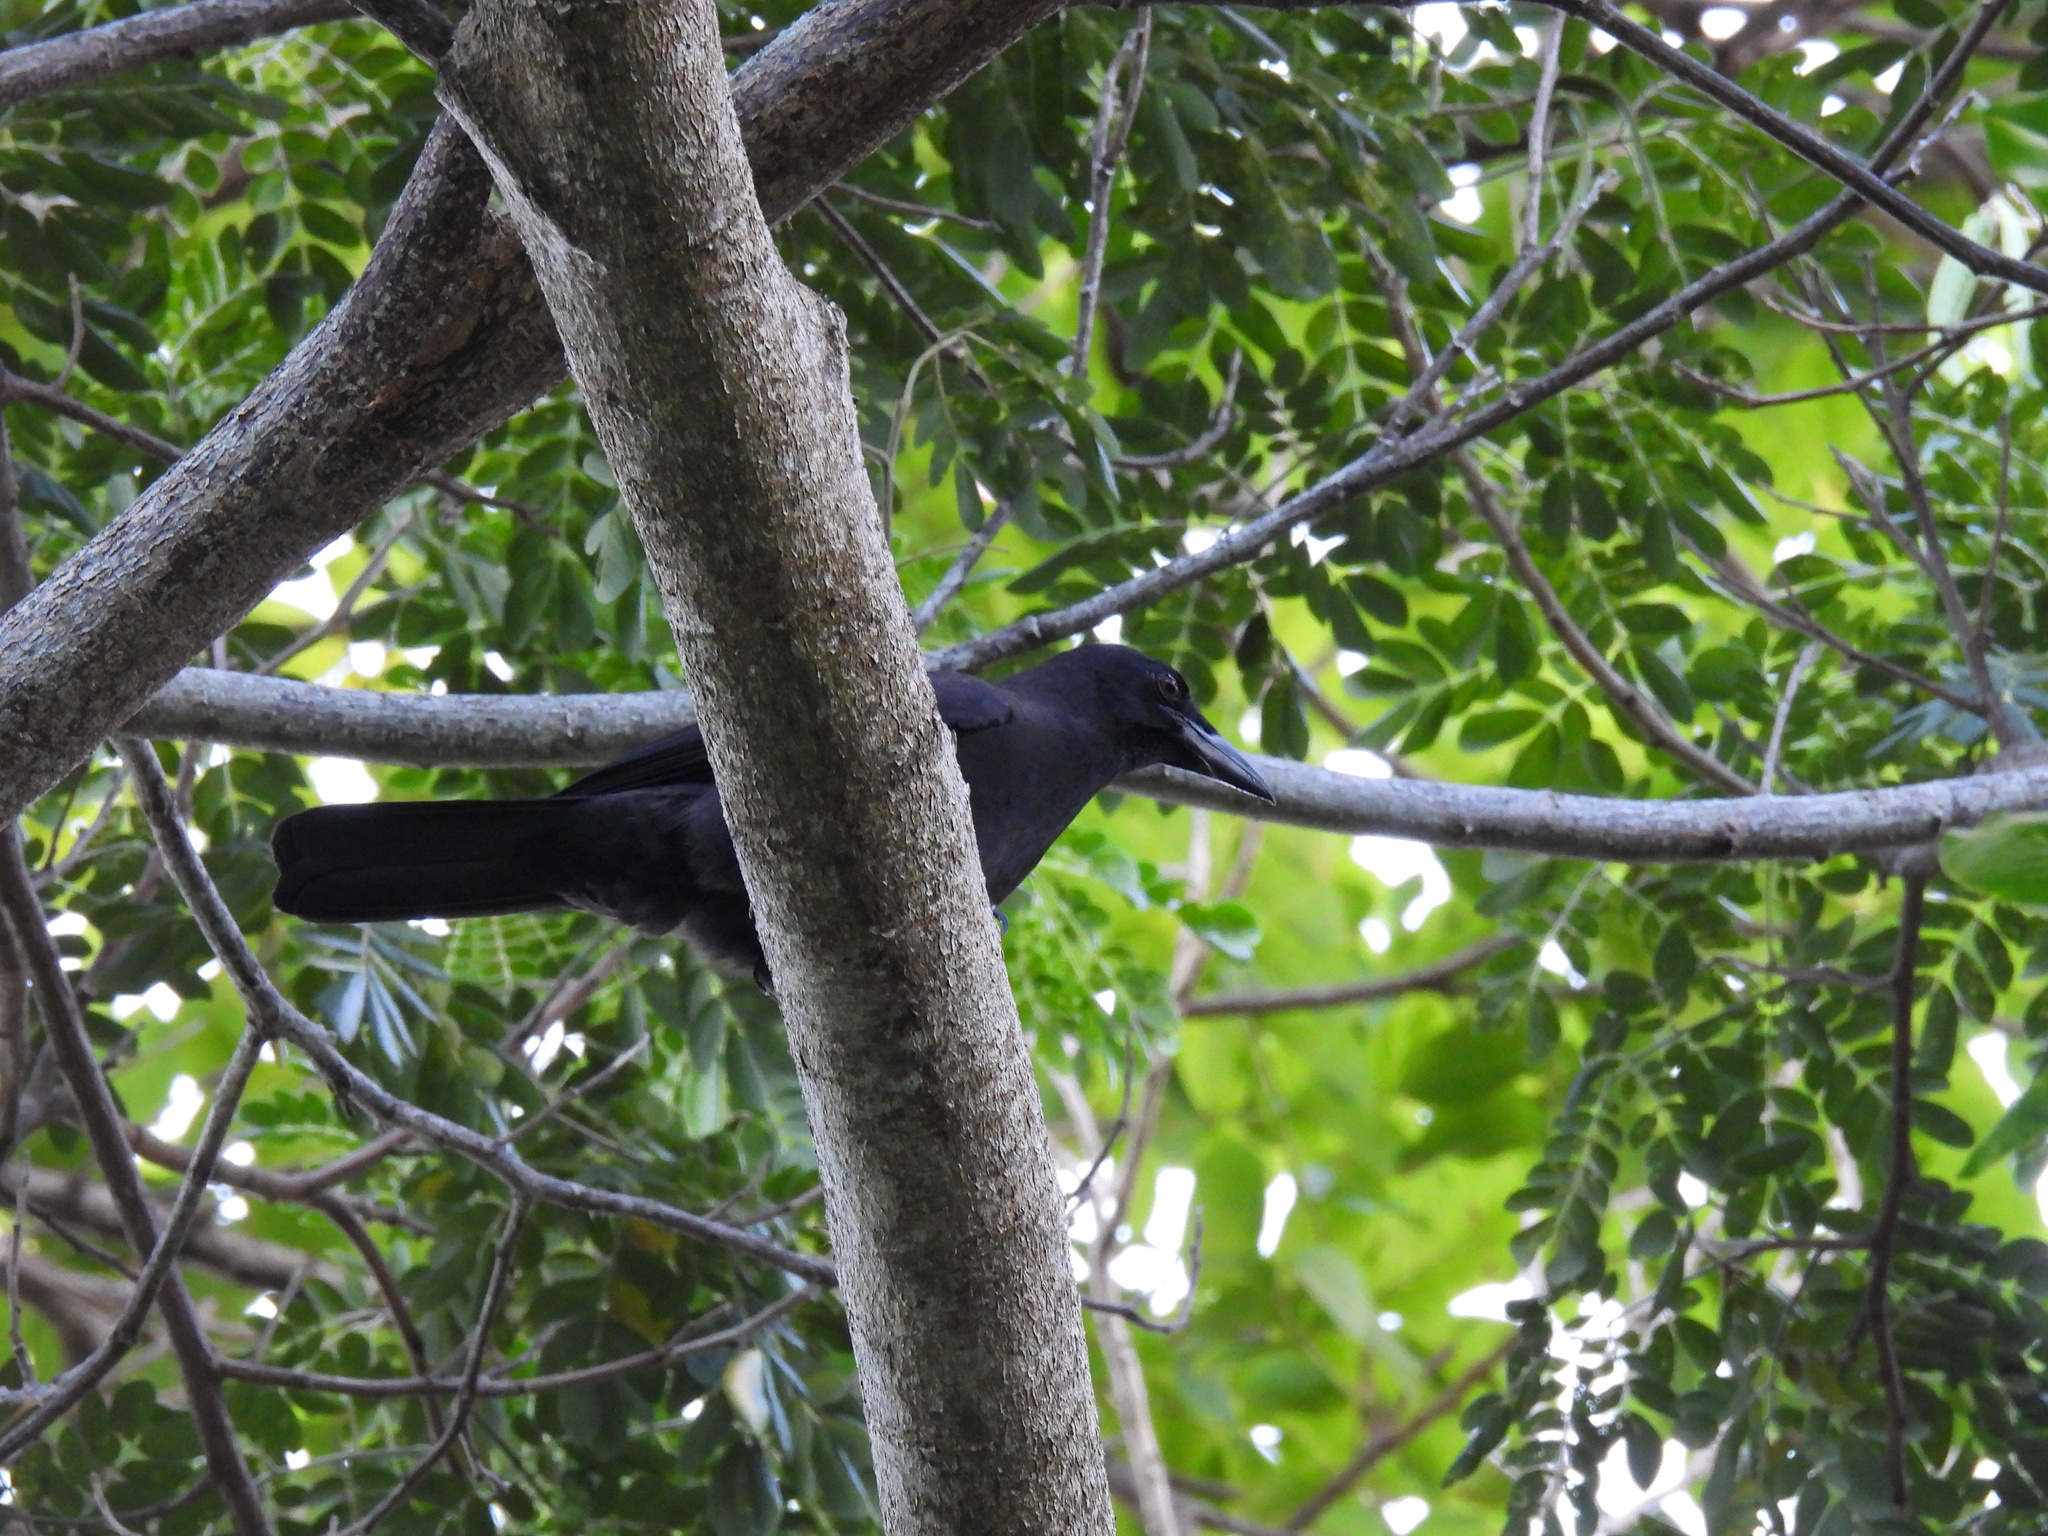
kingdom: Animalia
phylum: Chordata
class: Aves
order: Passeriformes
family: Corvidae
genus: Corvus
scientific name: Corvus jamaicensis
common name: Jamaican crow
